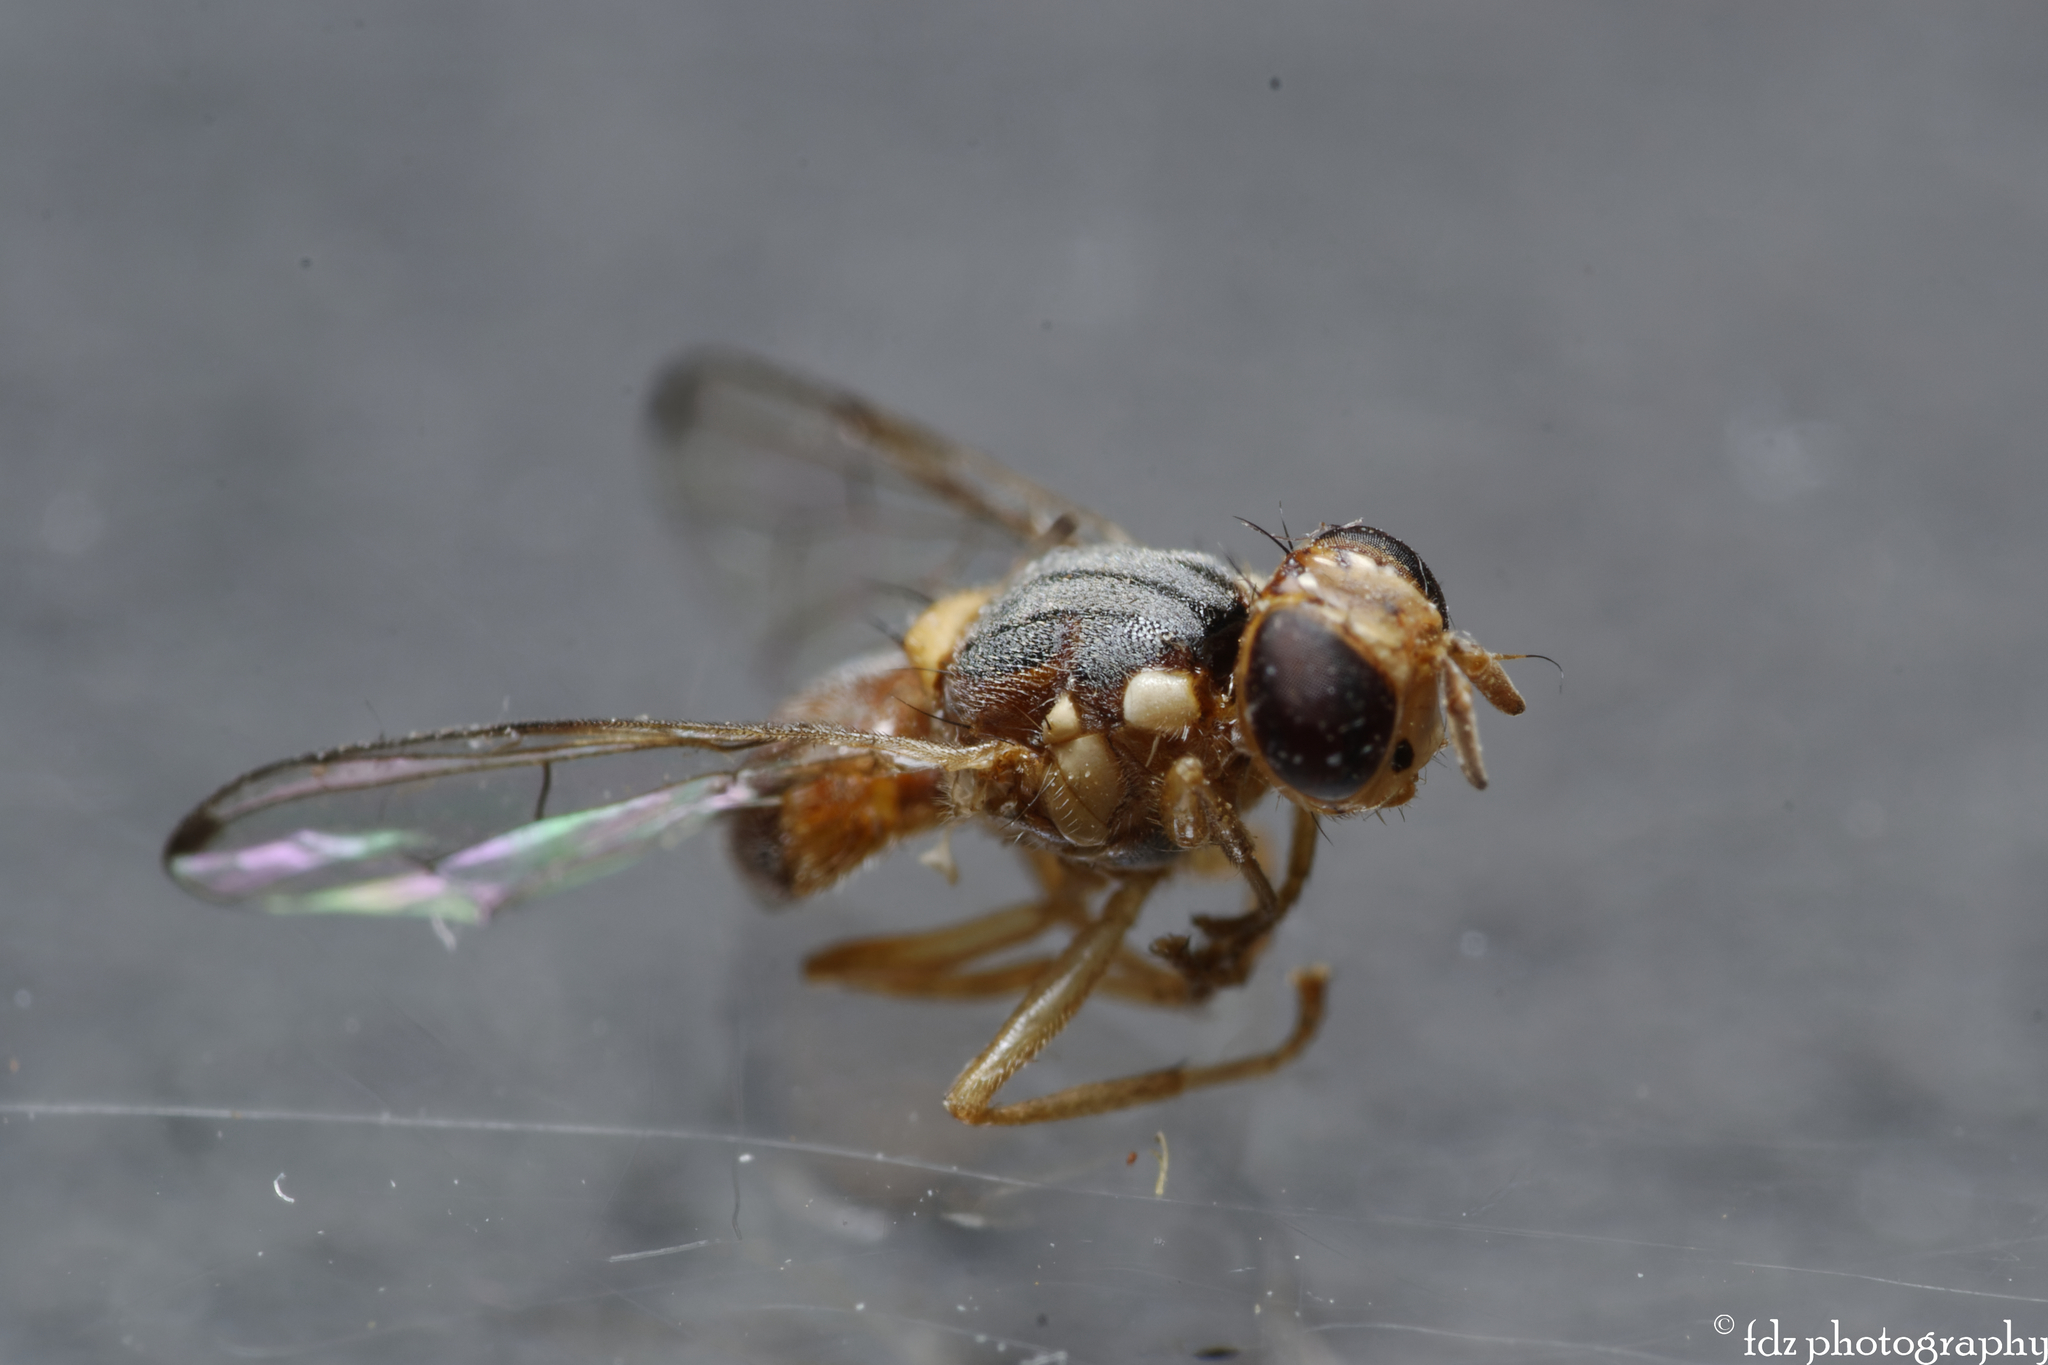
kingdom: Animalia
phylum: Arthropoda
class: Insecta
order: Diptera
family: Tephritidae
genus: Bactrocera
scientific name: Bactrocera oleae
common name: Olive fruit fly
